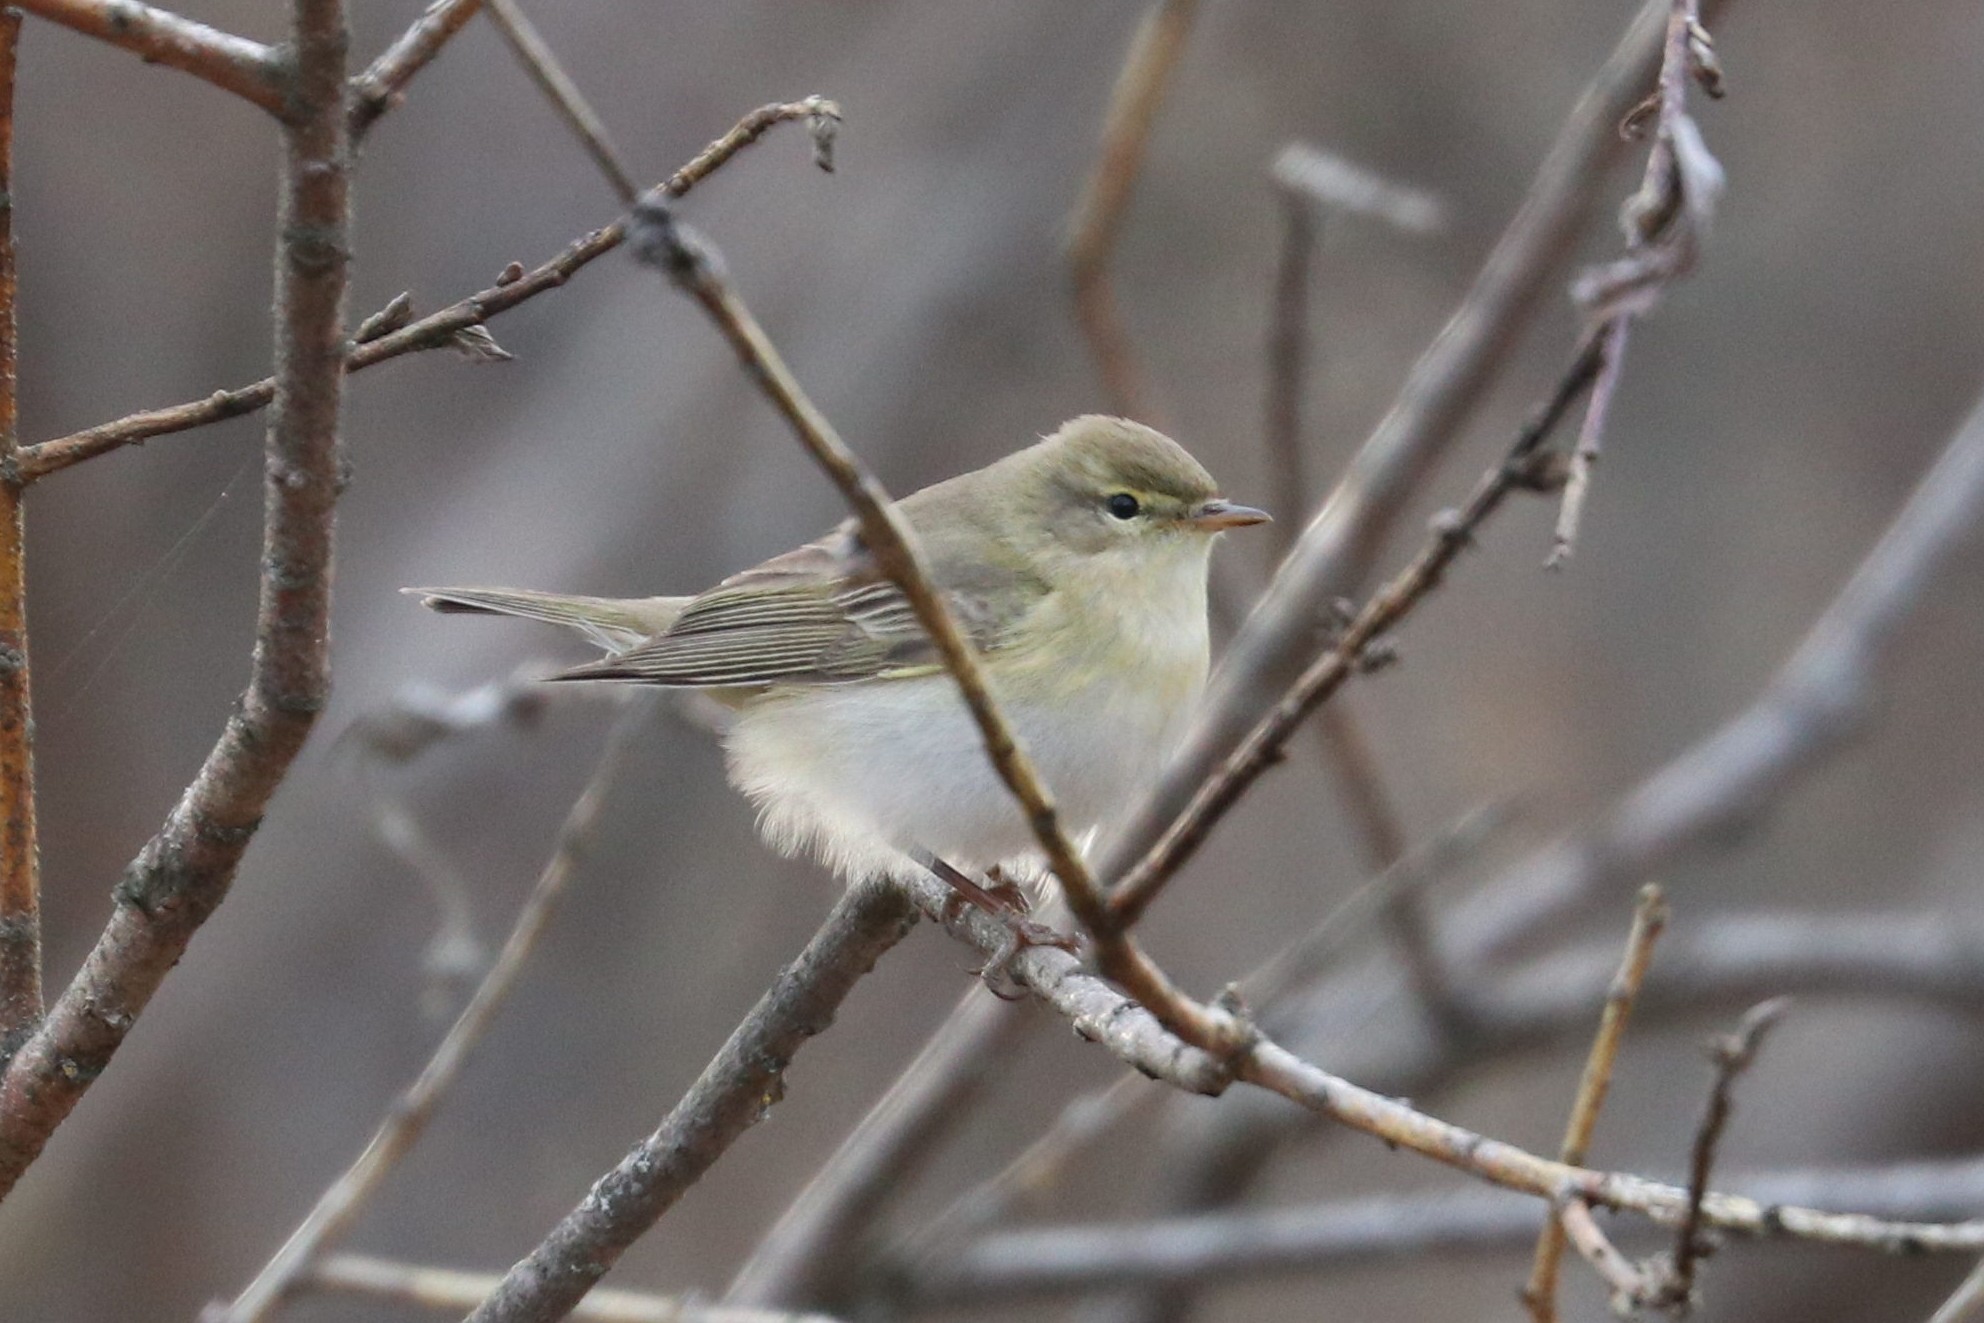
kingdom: Animalia
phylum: Chordata
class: Aves
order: Passeriformes
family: Phylloscopidae
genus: Phylloscopus
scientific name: Phylloscopus trochilus
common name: Willow warbler
